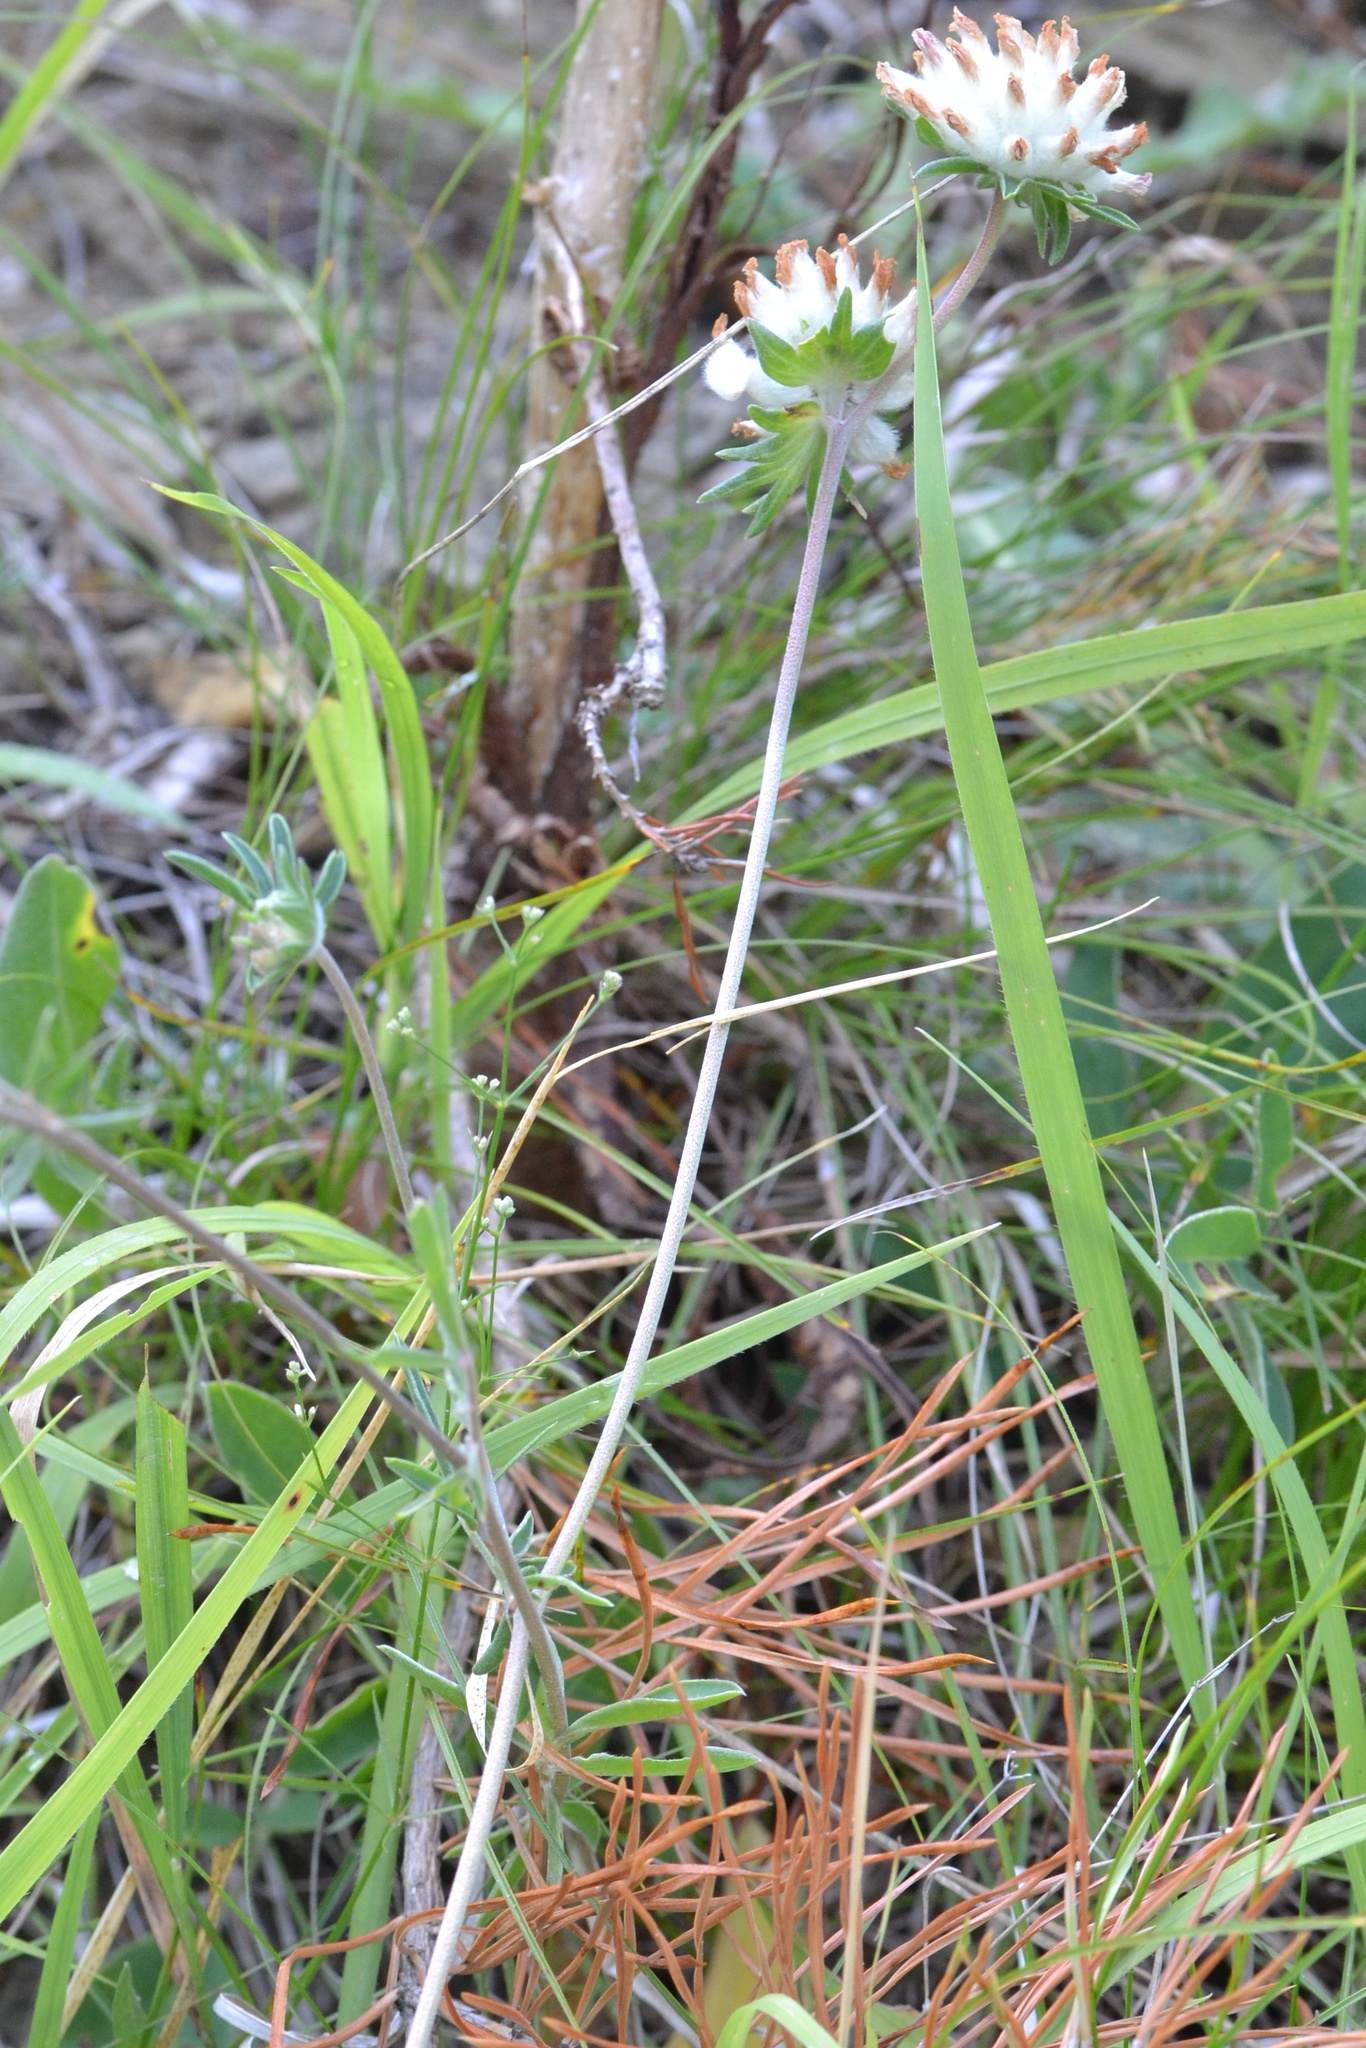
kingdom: Plantae
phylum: Tracheophyta
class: Magnoliopsida
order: Fabales
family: Fabaceae
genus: Anthyllis
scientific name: Anthyllis vulneraria
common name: Kidney vetch
